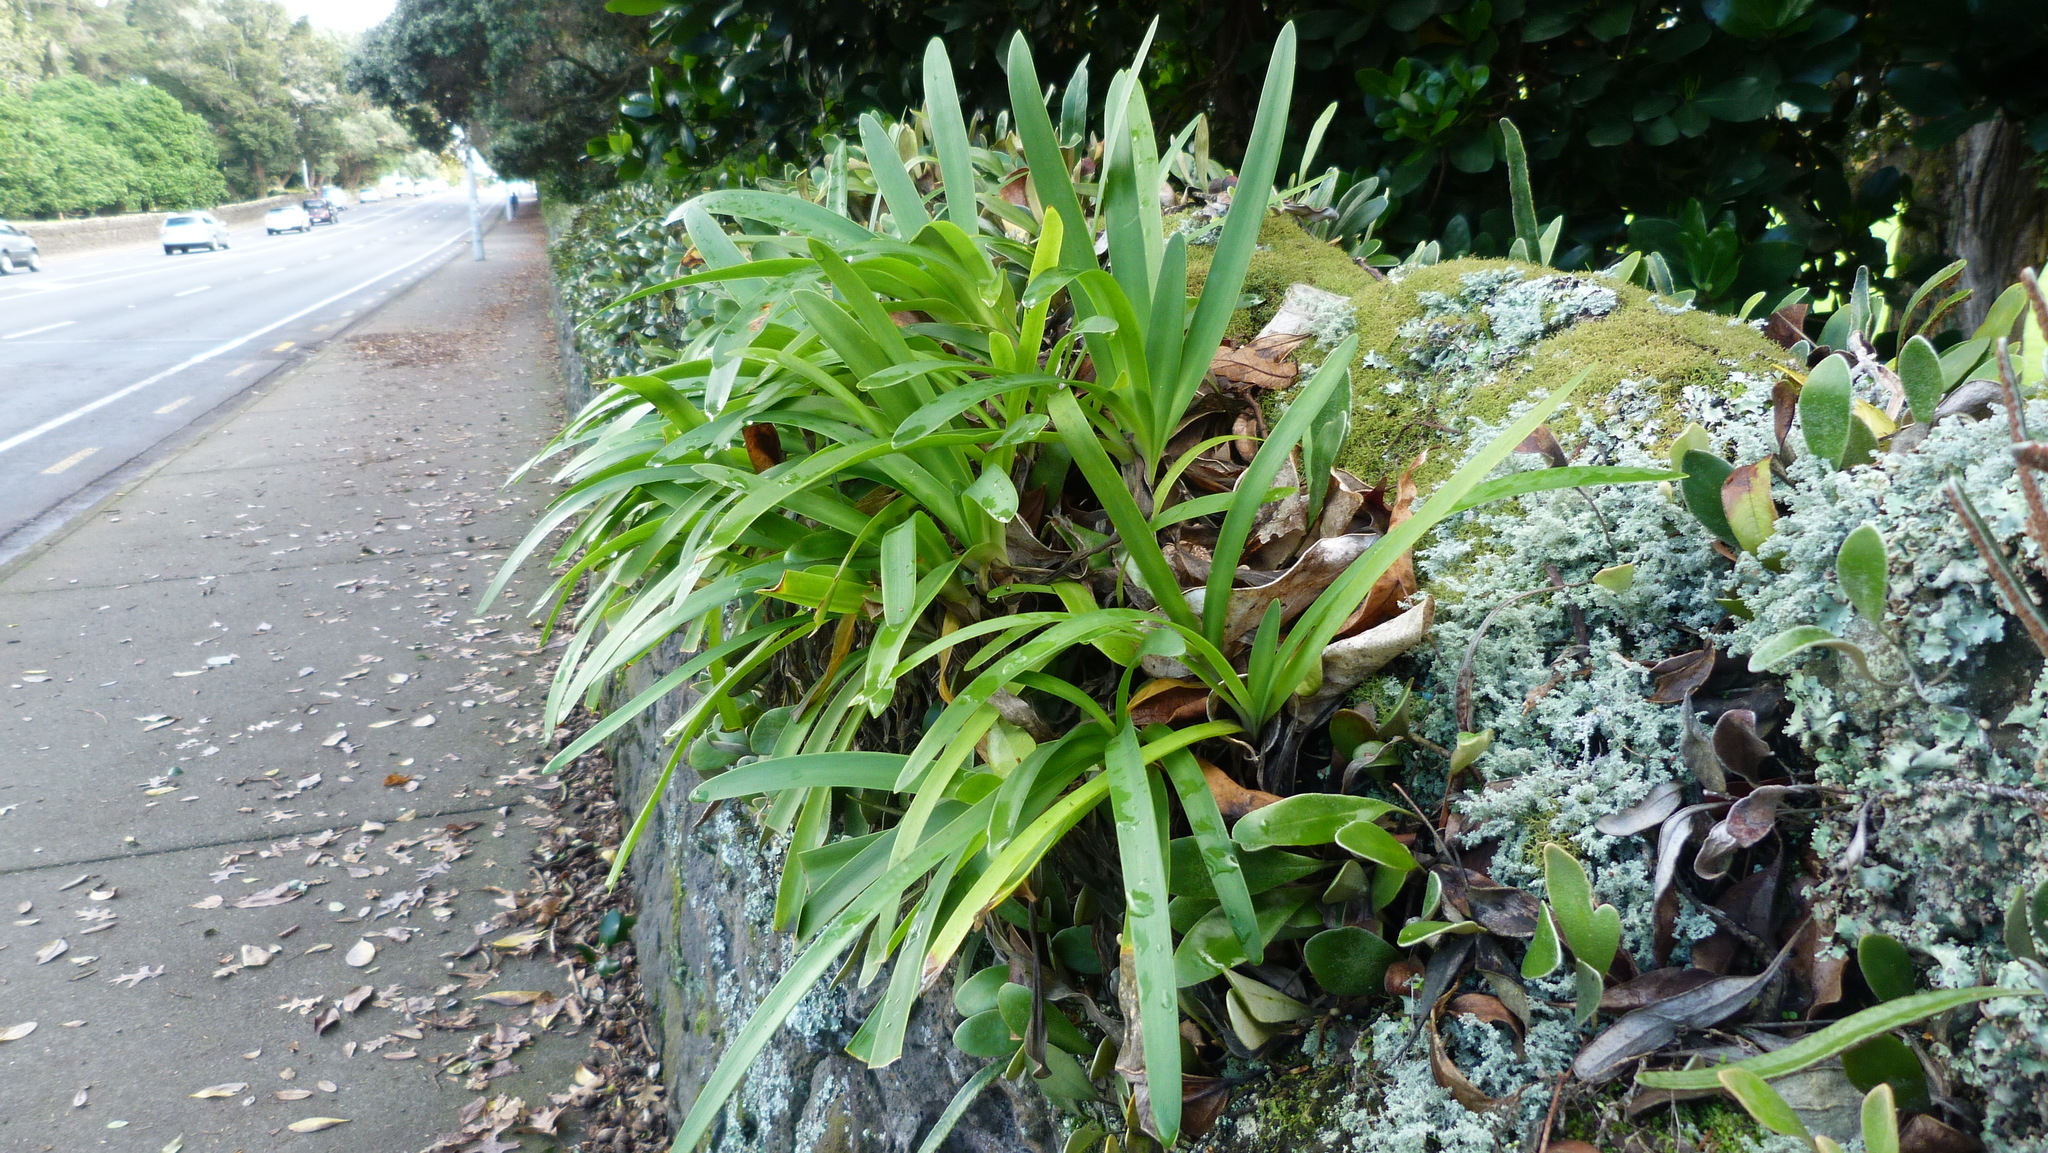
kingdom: Plantae
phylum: Tracheophyta
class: Liliopsida
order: Asparagales
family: Amaryllidaceae
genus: Agapanthus
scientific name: Agapanthus praecox
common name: African-lily
